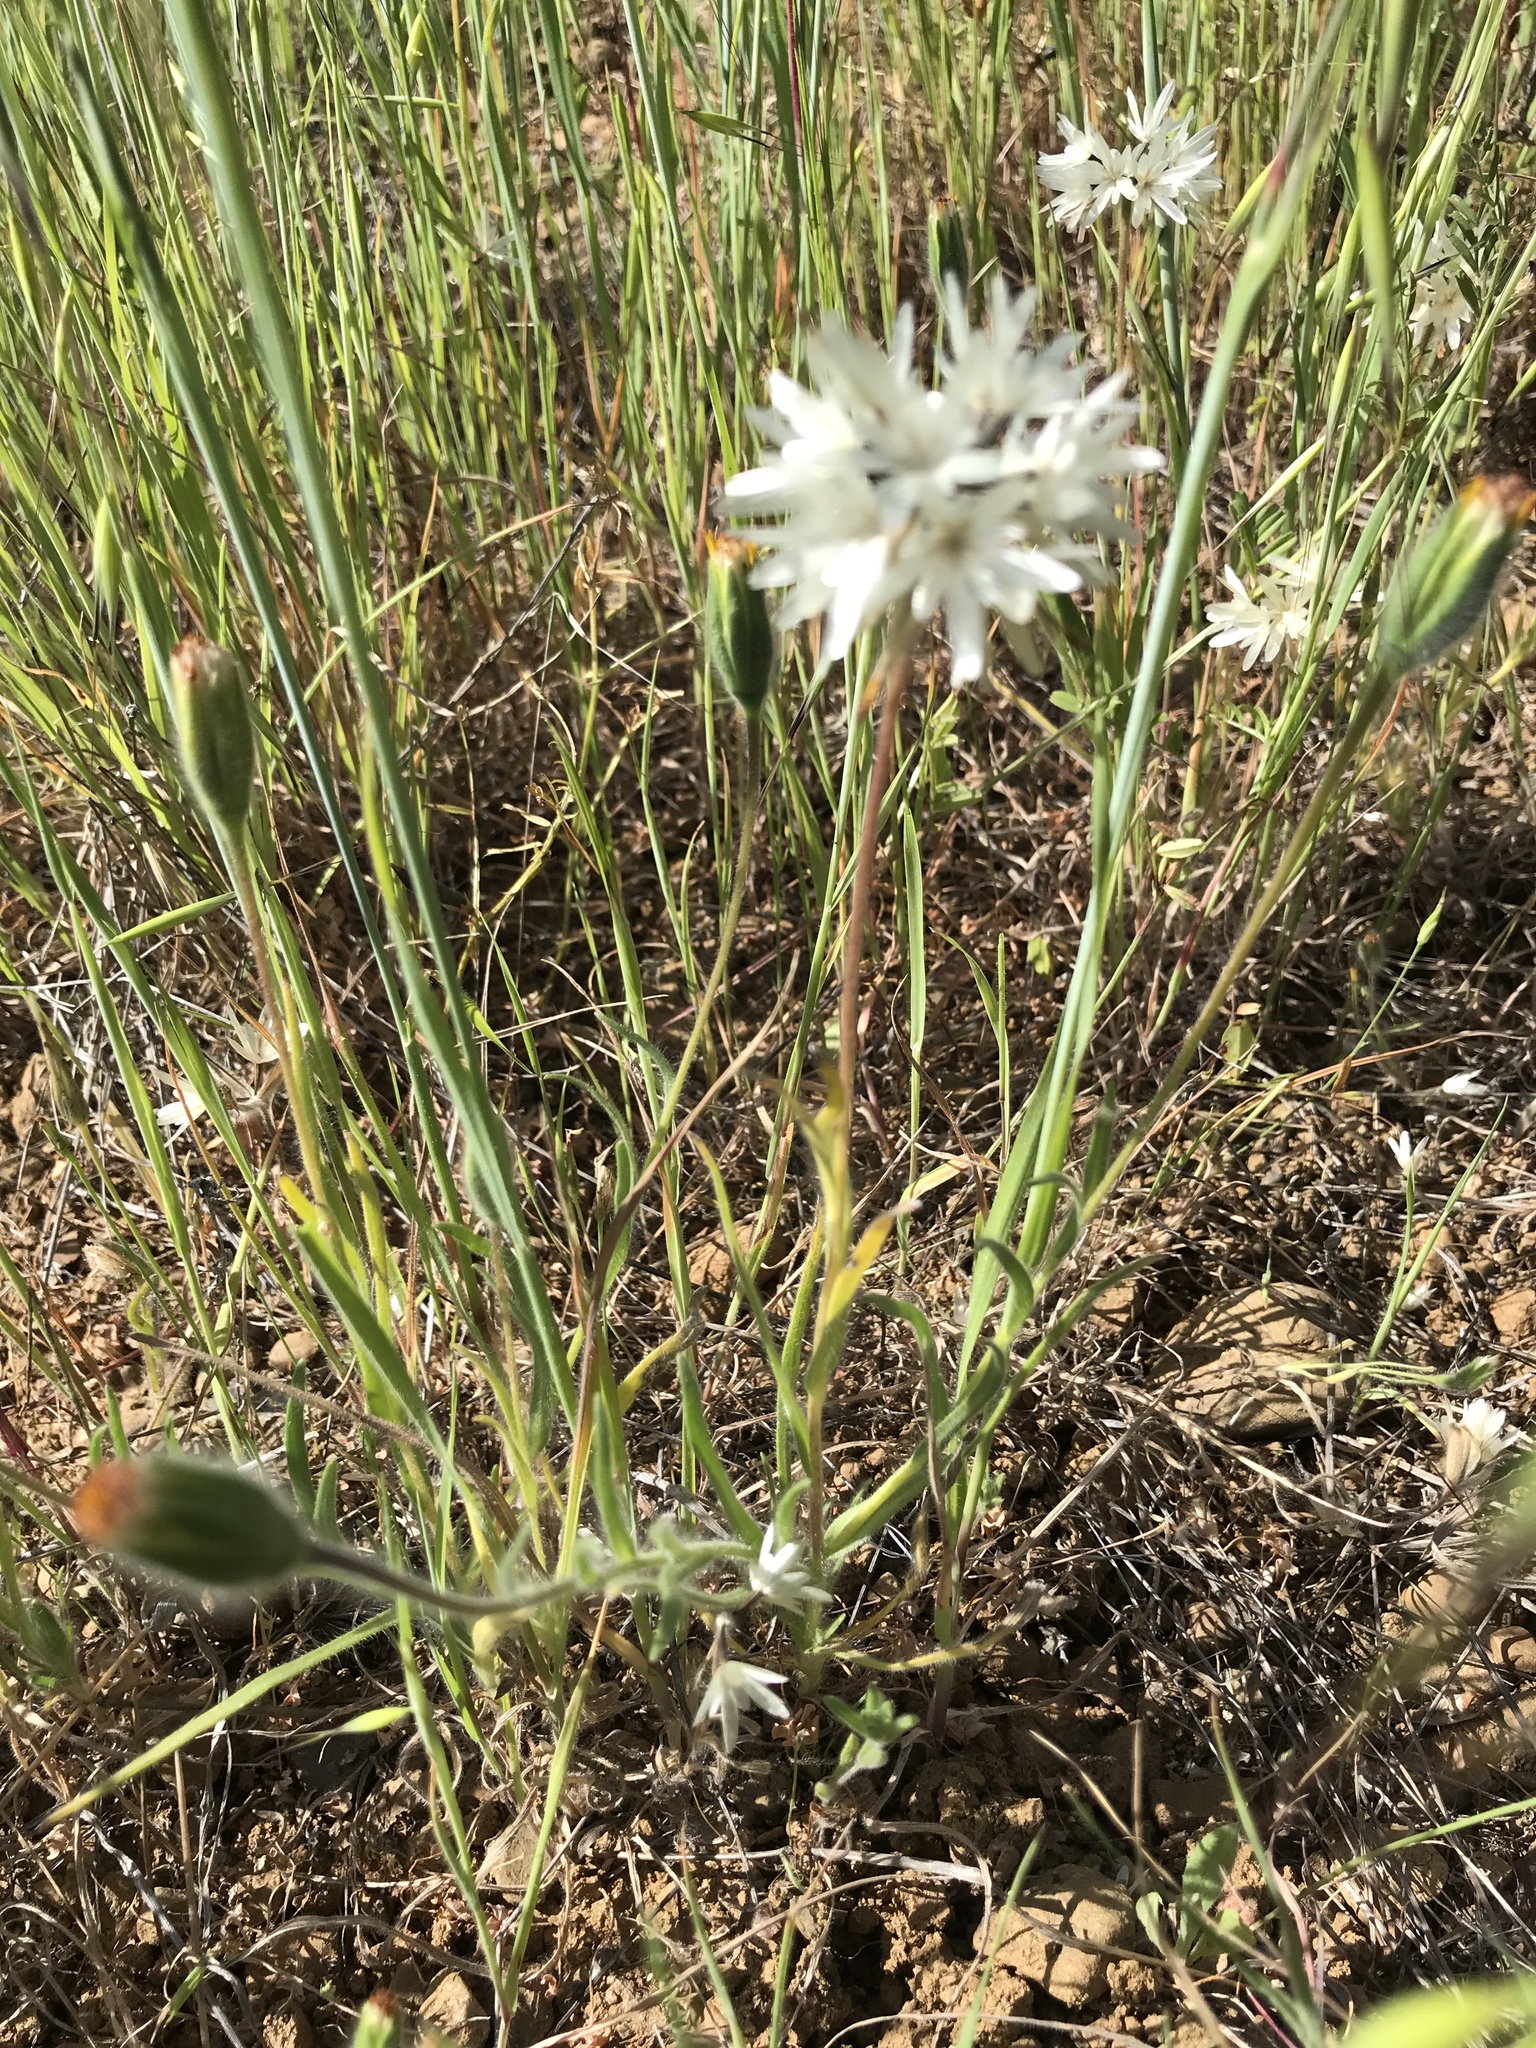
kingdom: Plantae
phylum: Tracheophyta
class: Magnoliopsida
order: Asterales
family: Asteraceae
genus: Achyrachaena
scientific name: Achyrachaena mollis
